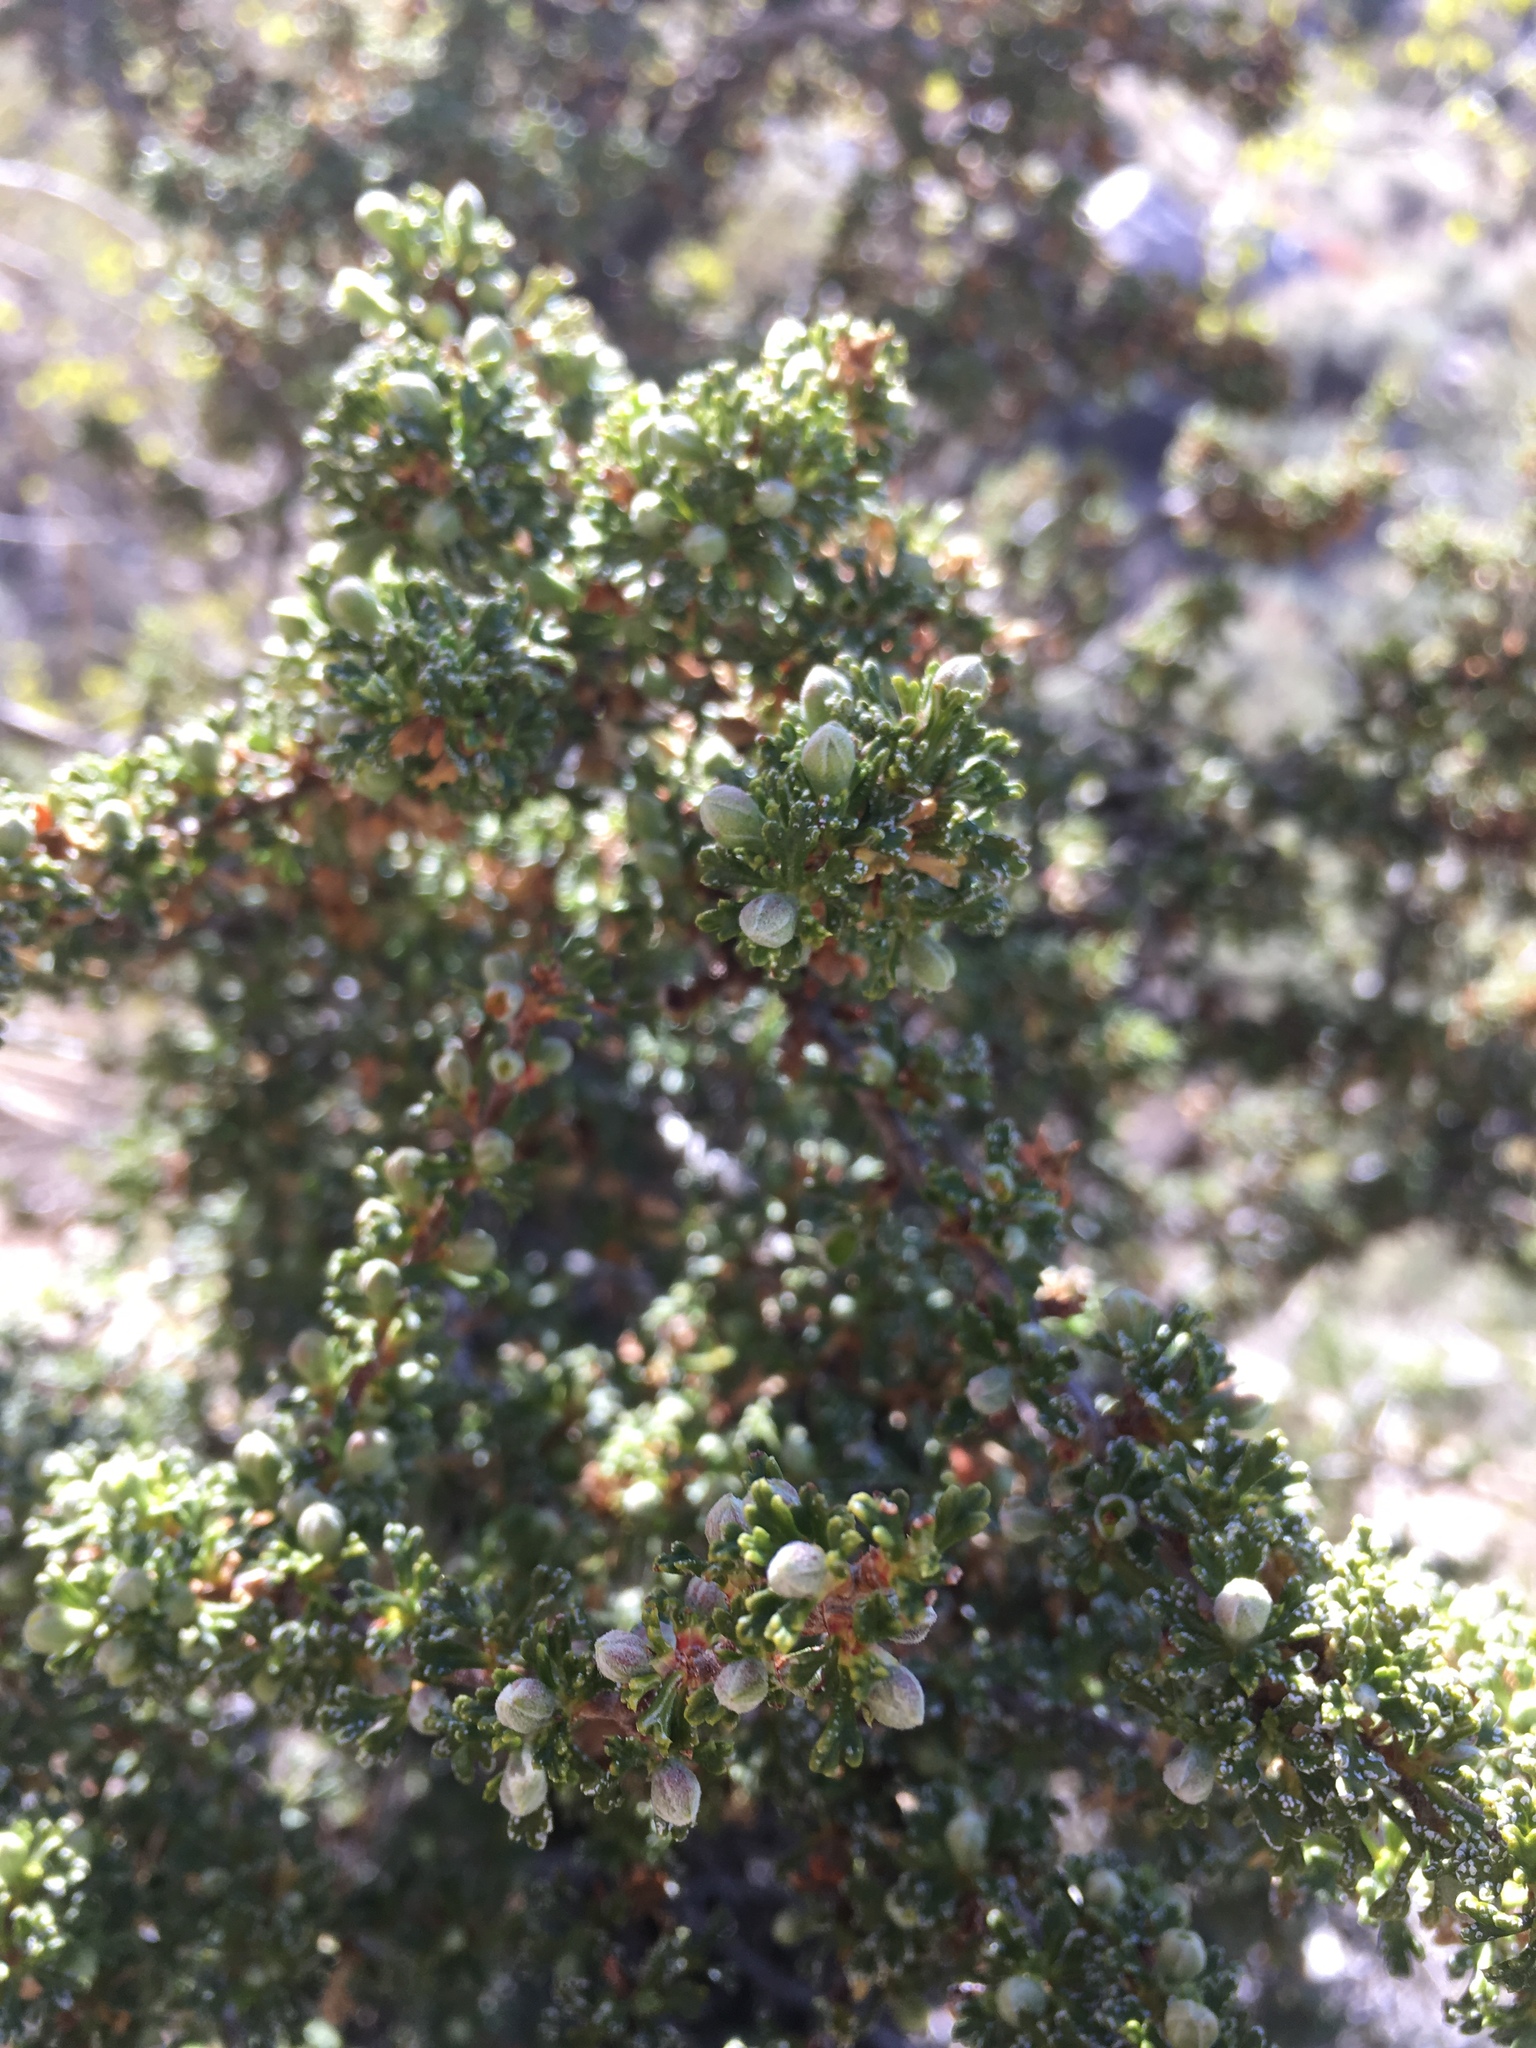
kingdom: Plantae
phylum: Tracheophyta
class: Magnoliopsida
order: Rosales
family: Rosaceae
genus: Purshia
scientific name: Purshia glandulosa
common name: Desert bitterbrush
